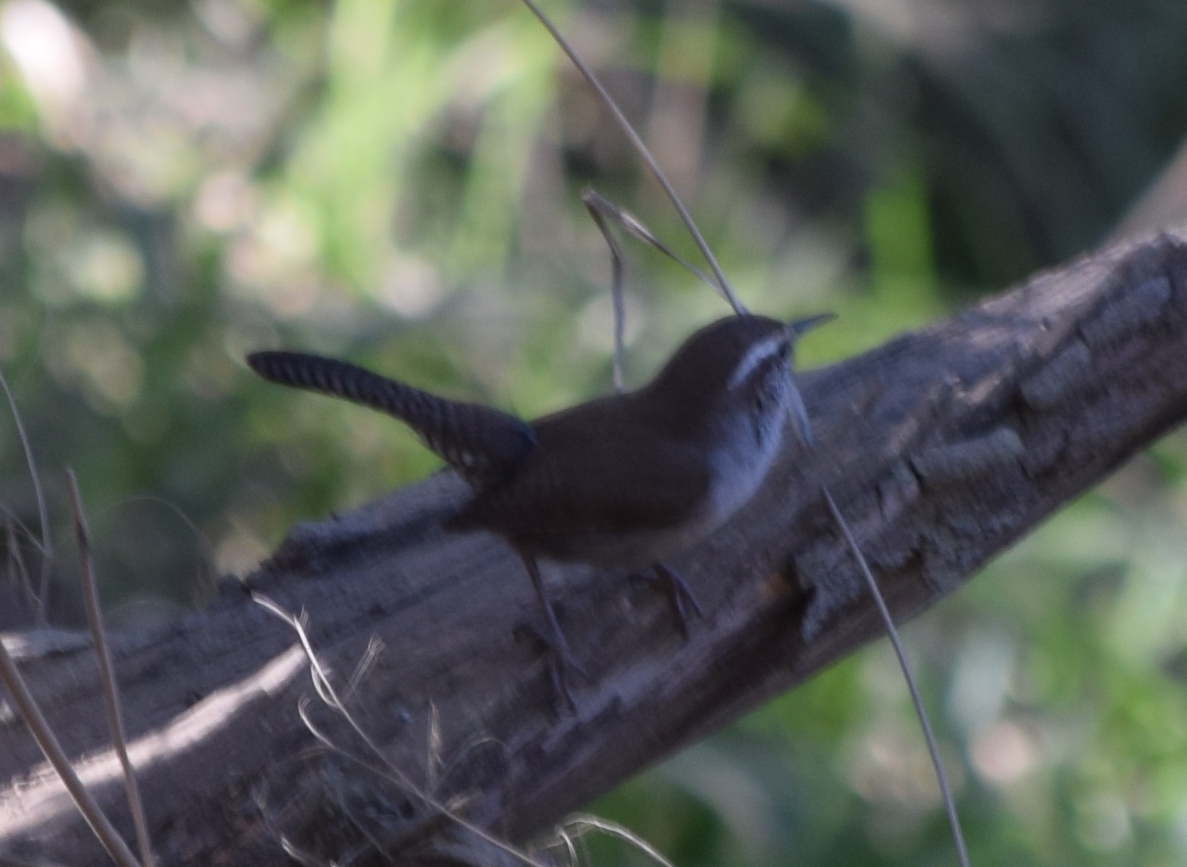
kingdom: Animalia
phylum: Chordata
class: Aves
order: Passeriformes
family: Troglodytidae
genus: Thryomanes
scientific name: Thryomanes bewickii
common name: Bewick's wren
